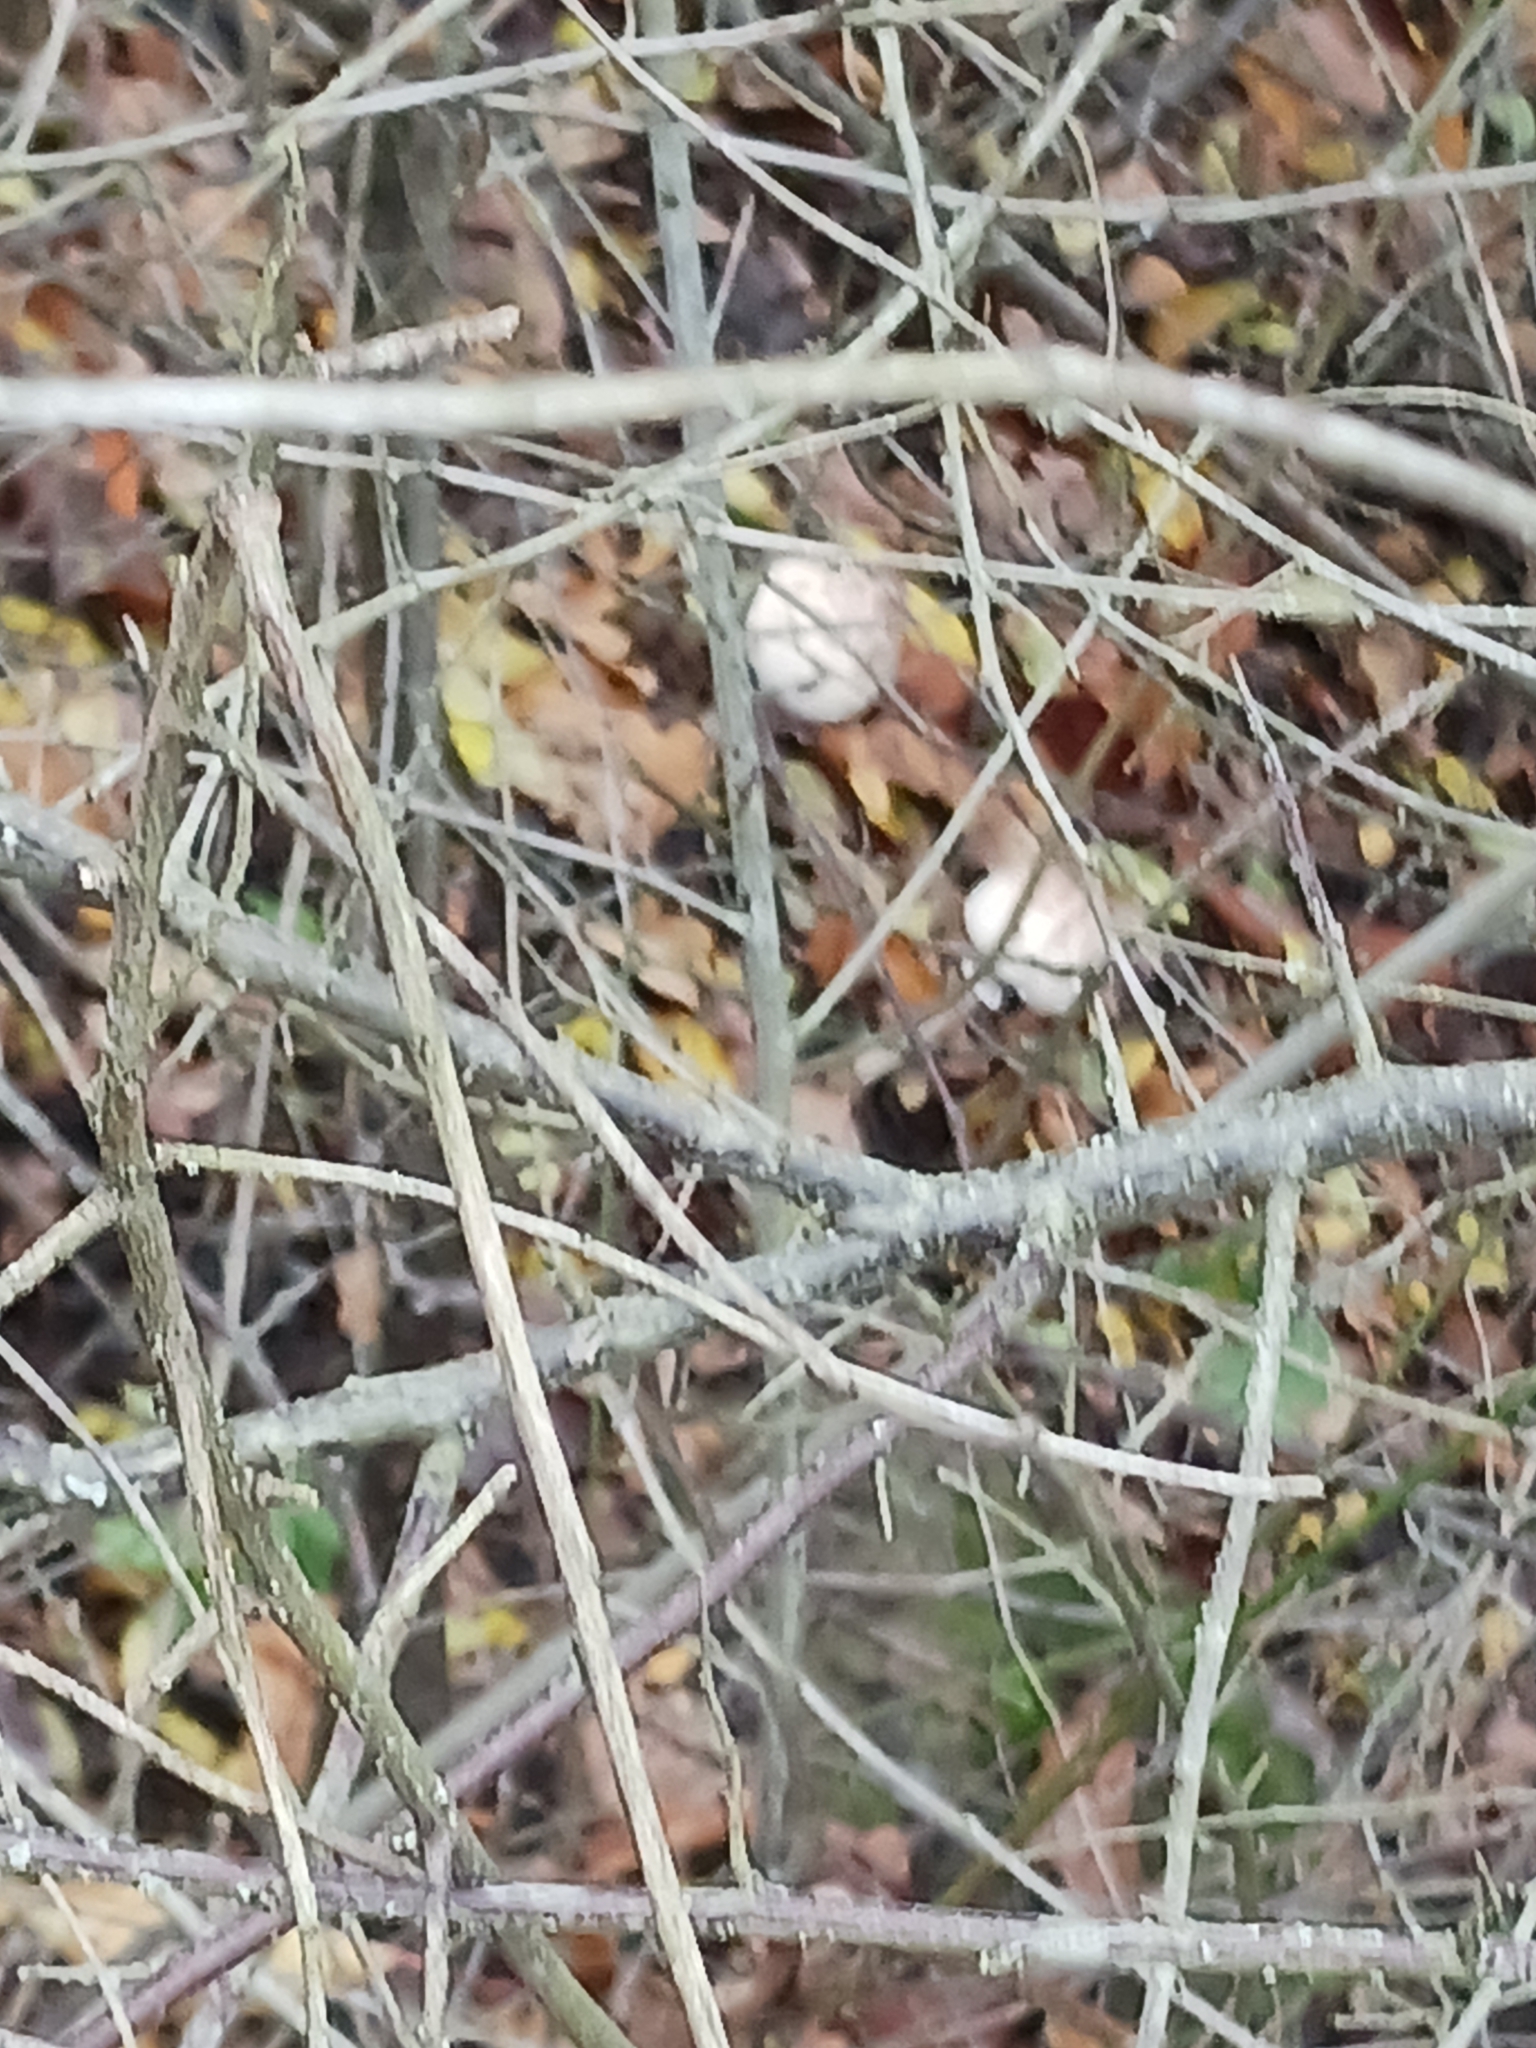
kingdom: Fungi
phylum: Basidiomycota
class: Agaricomycetes
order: Agaricales
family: Agaricaceae
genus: Macrolepiota
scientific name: Macrolepiota fuliginosa
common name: Sooty parasol
